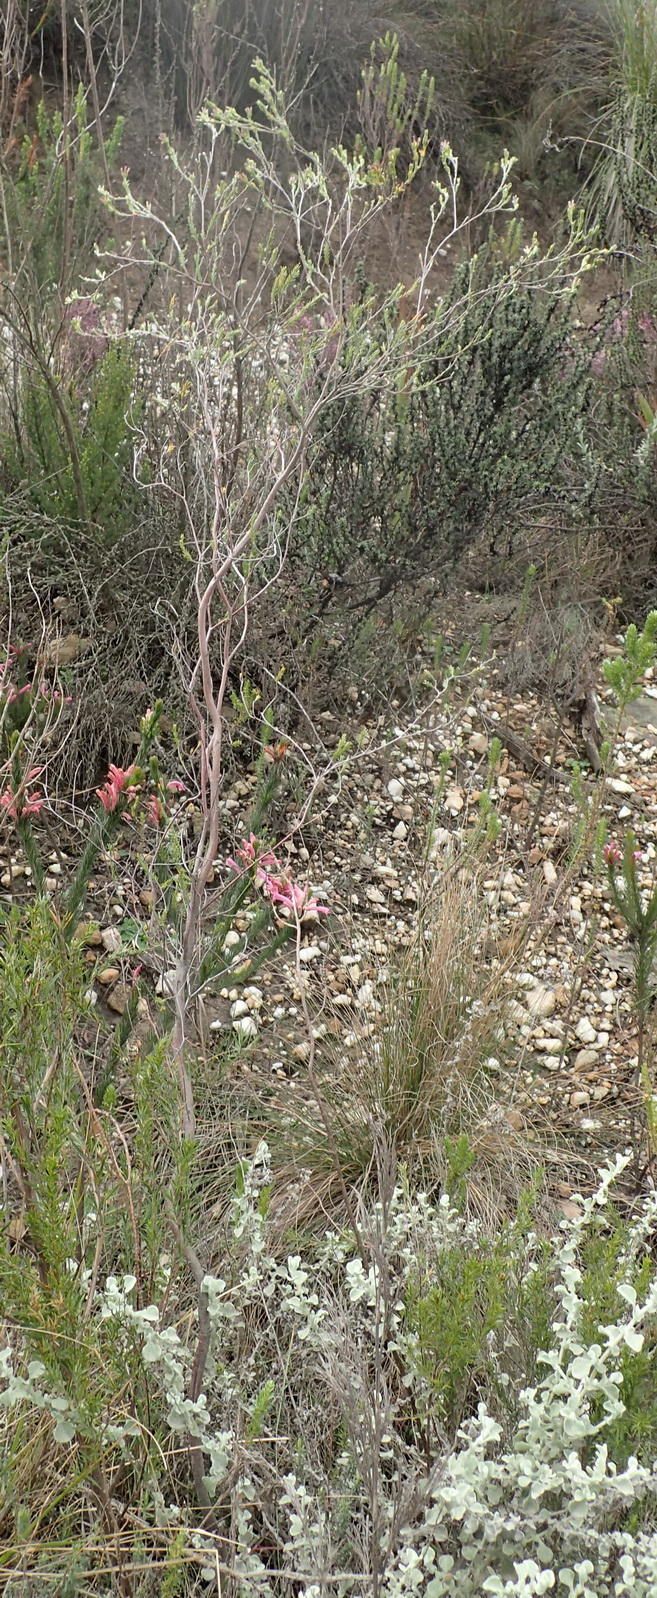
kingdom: Plantae
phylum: Tracheophyta
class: Magnoliopsida
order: Malvales
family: Thymelaeaceae
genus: Gnidia
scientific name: Gnidia laxa
